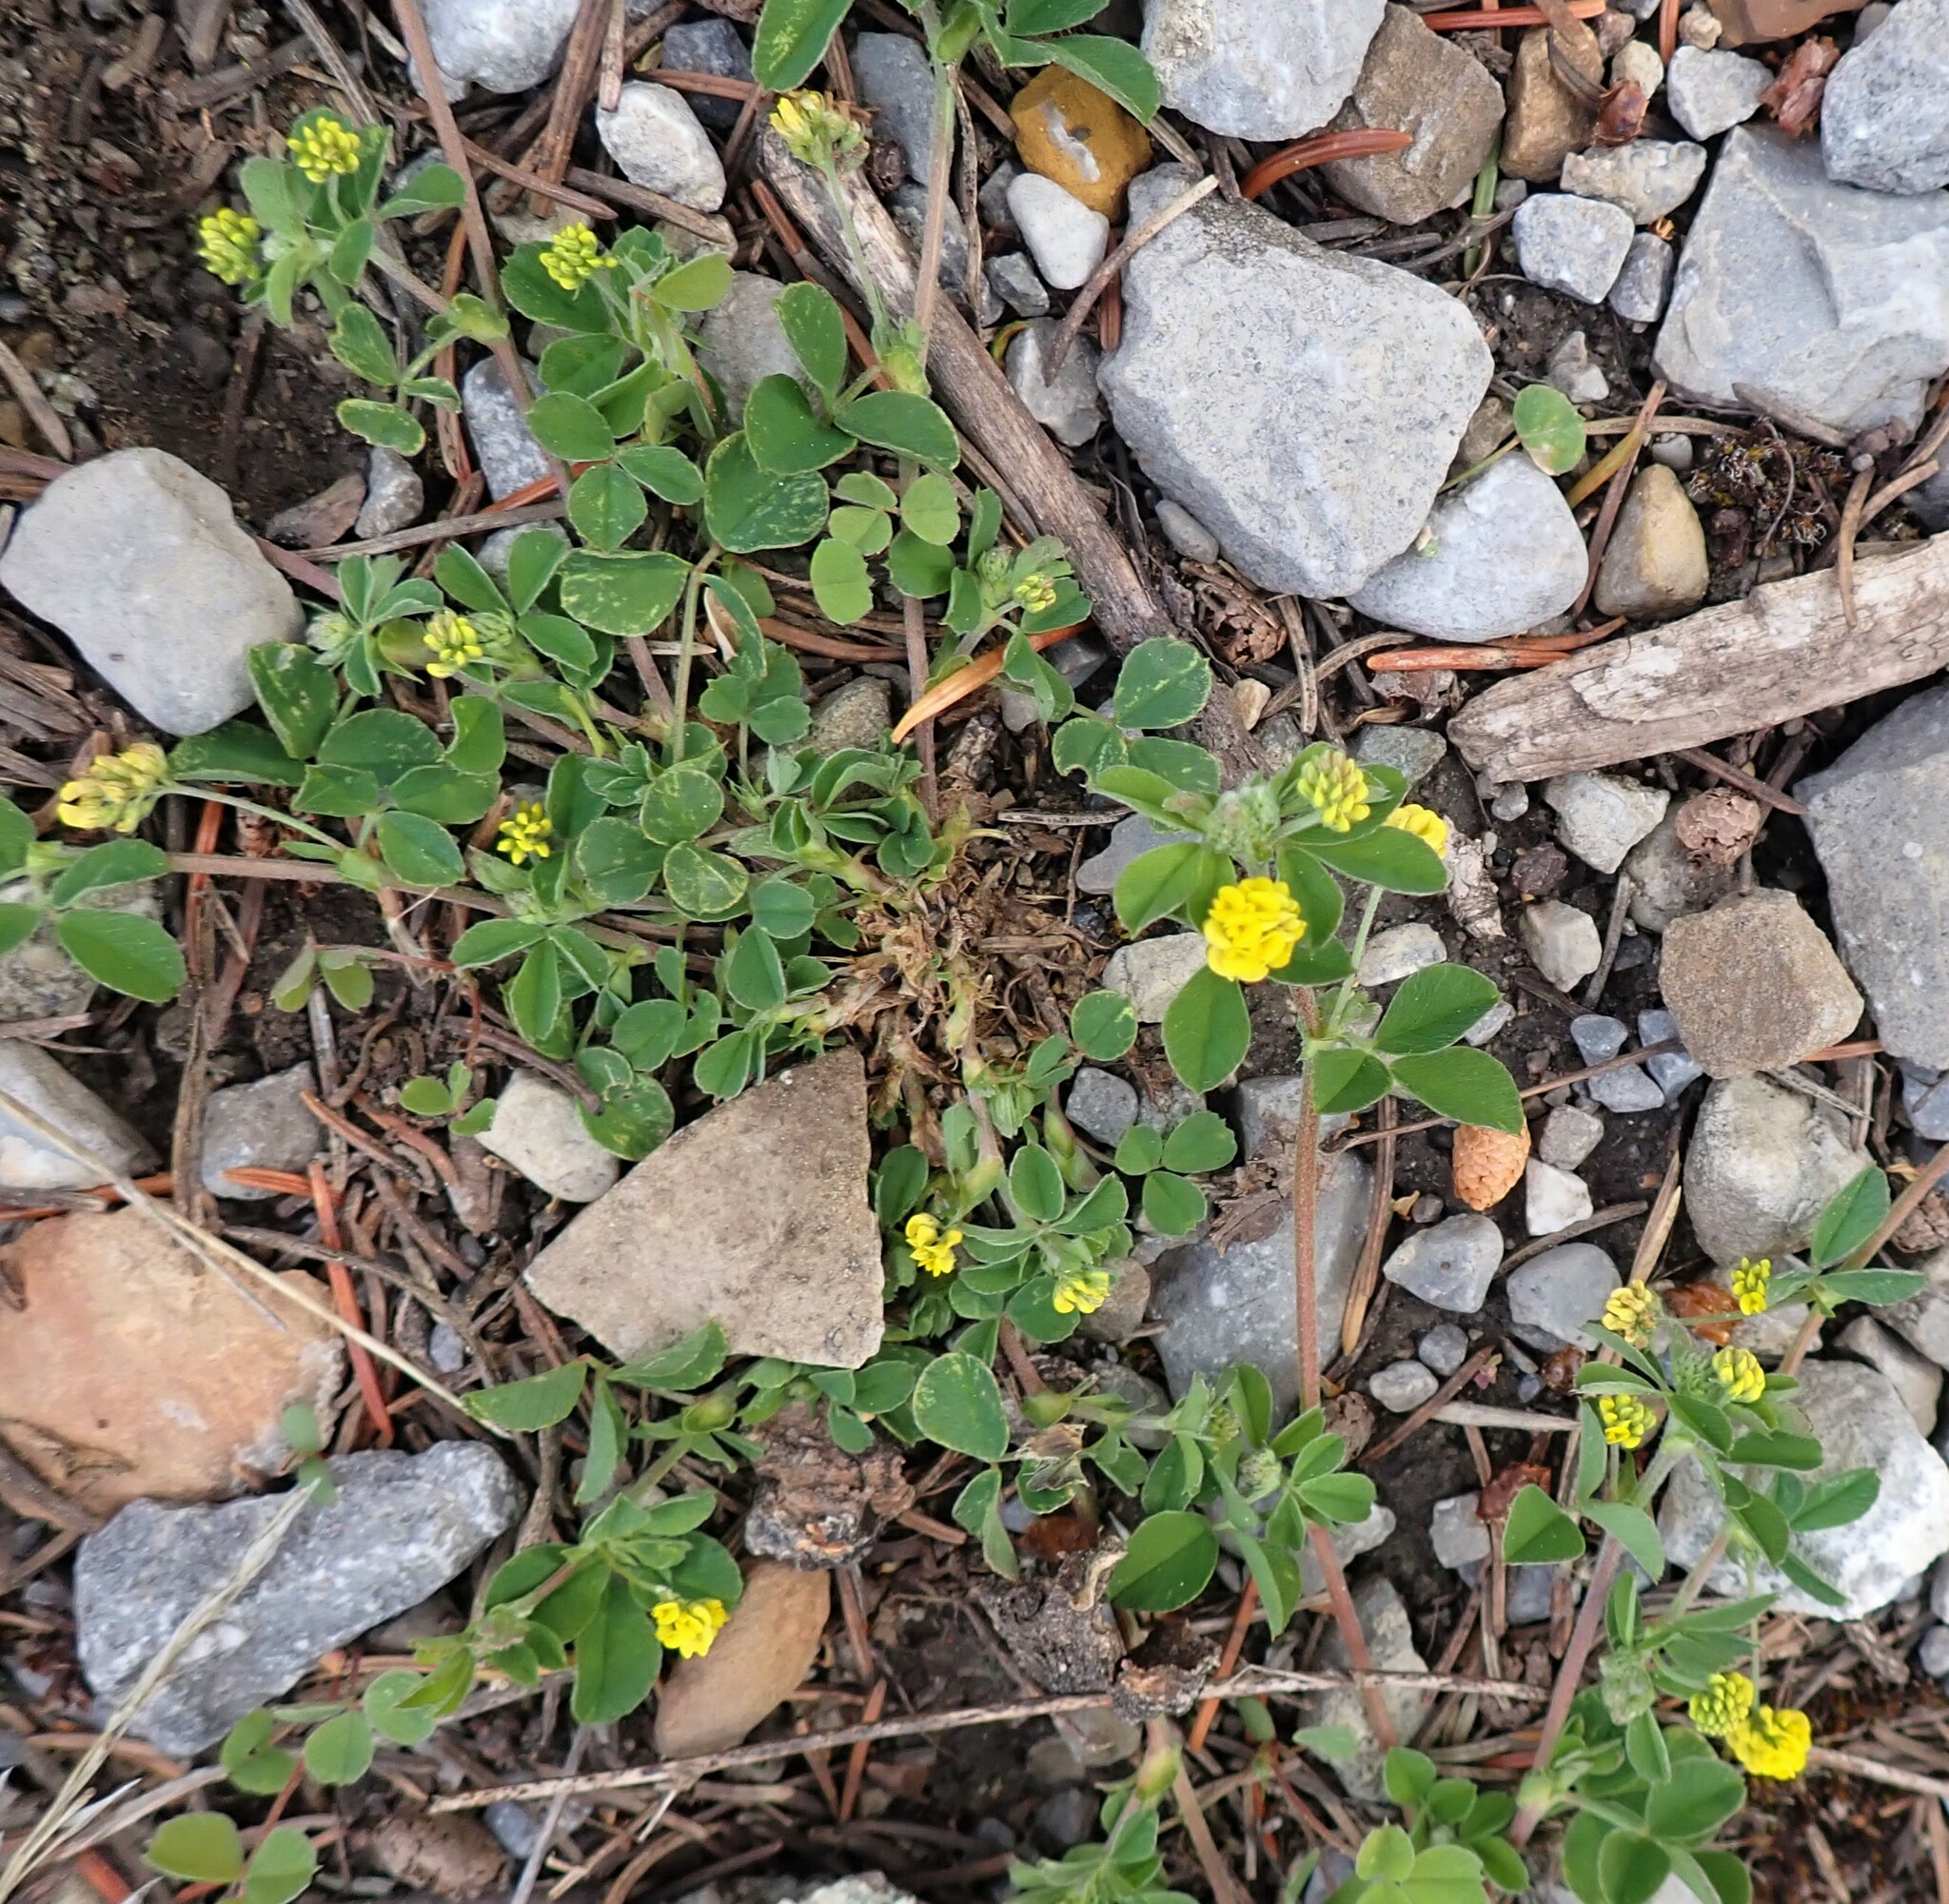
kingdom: Plantae
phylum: Tracheophyta
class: Magnoliopsida
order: Fabales
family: Fabaceae
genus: Medicago
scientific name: Medicago lupulina
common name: Black medick
